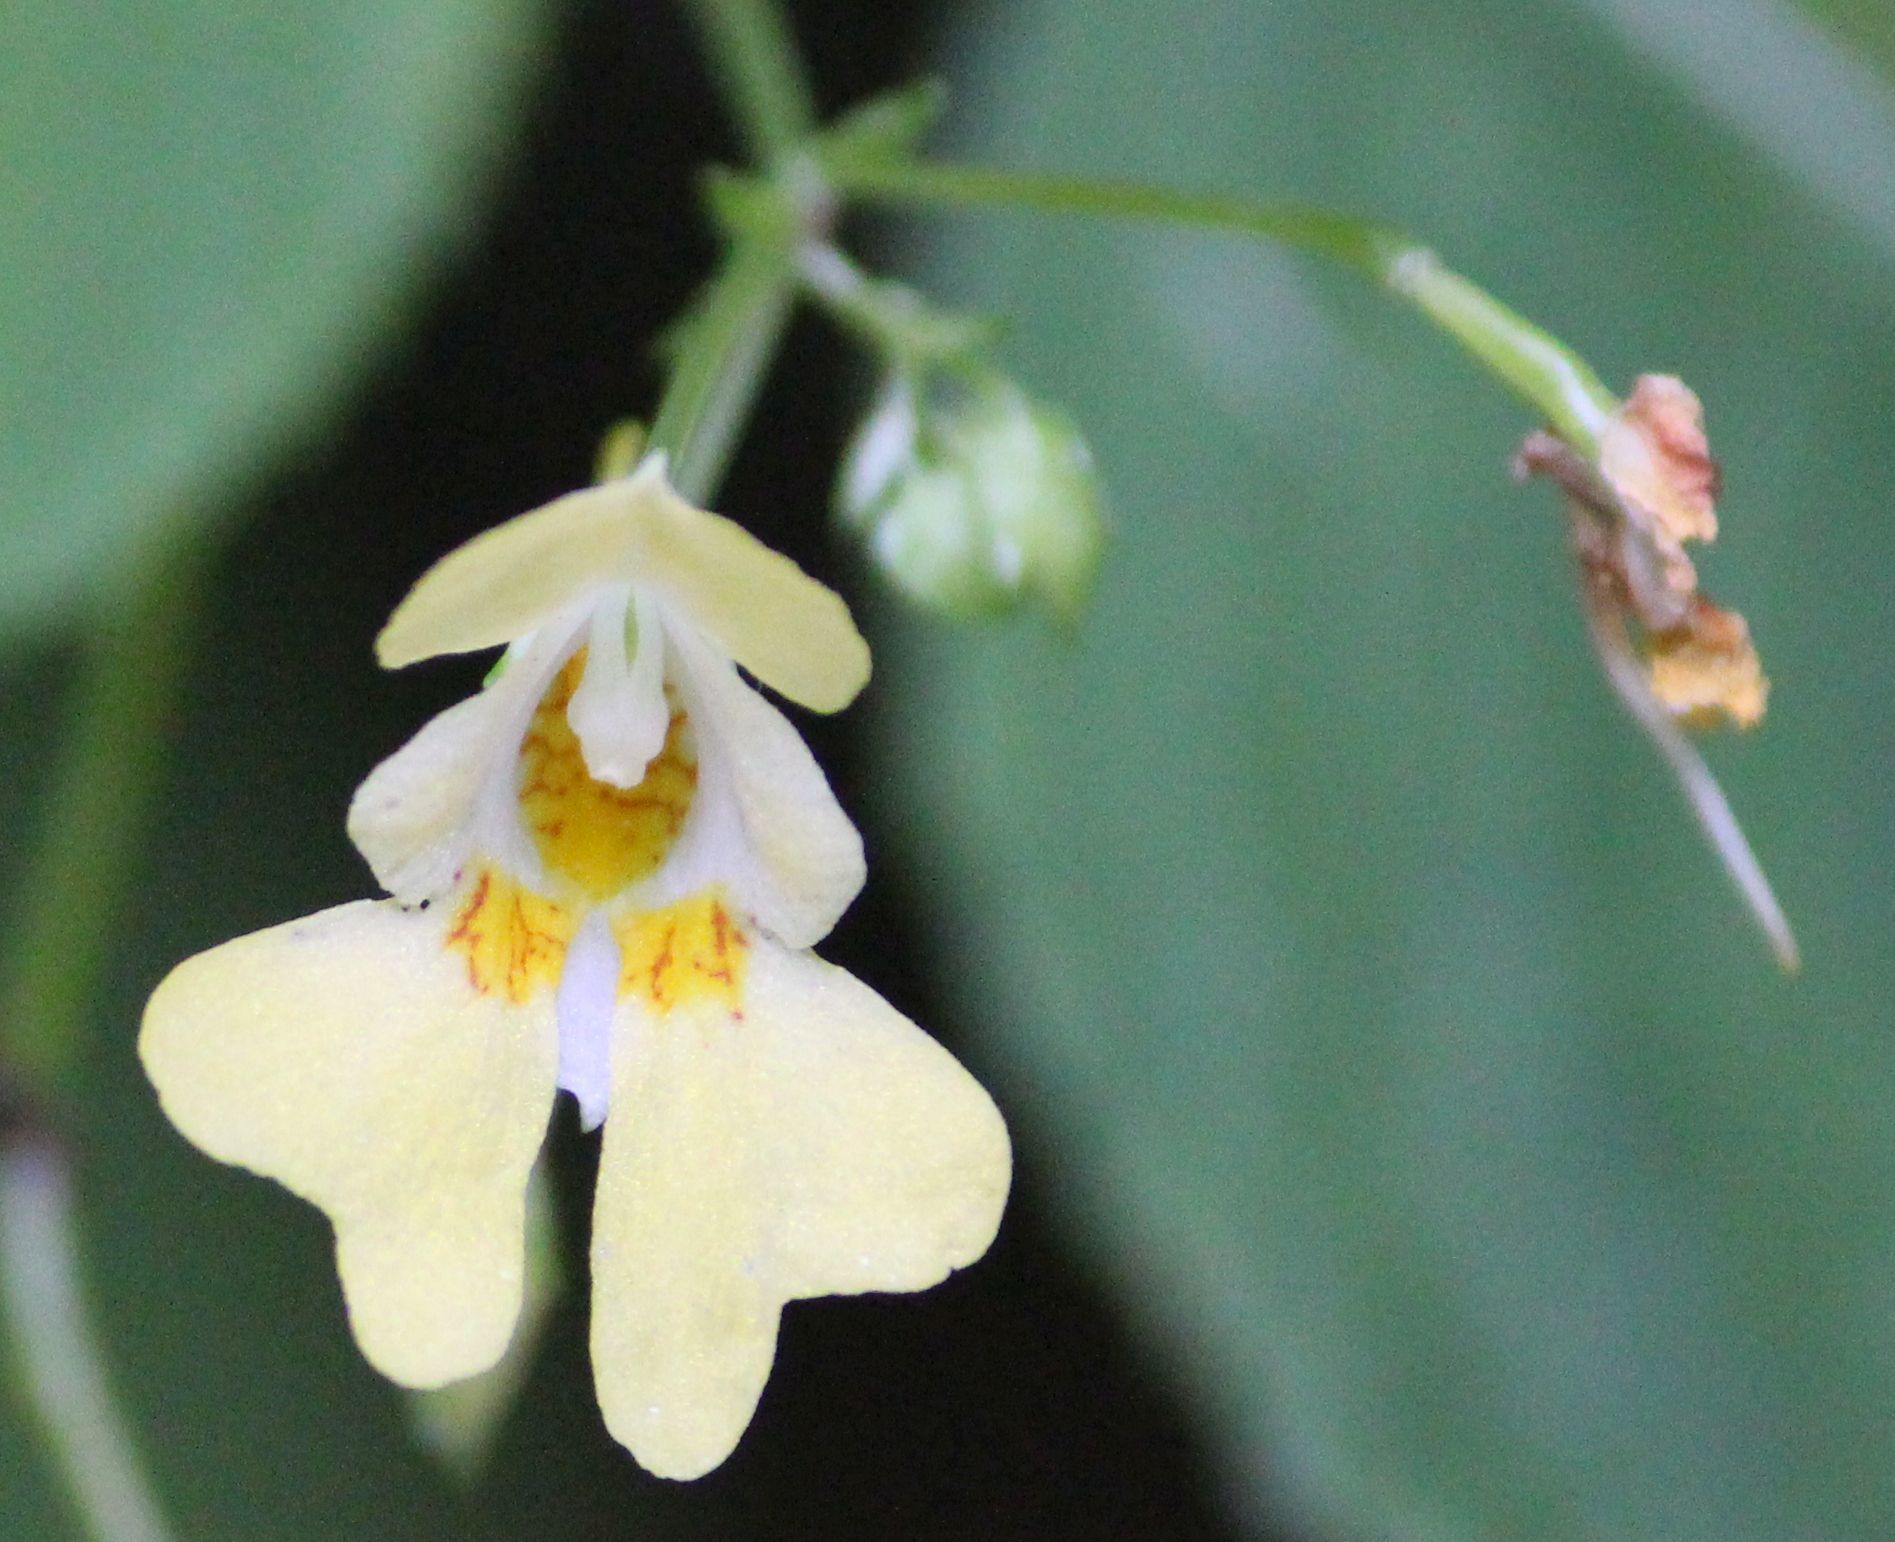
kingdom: Plantae
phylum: Tracheophyta
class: Magnoliopsida
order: Ericales
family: Balsaminaceae
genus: Impatiens
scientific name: Impatiens parviflora
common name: Small balsam
